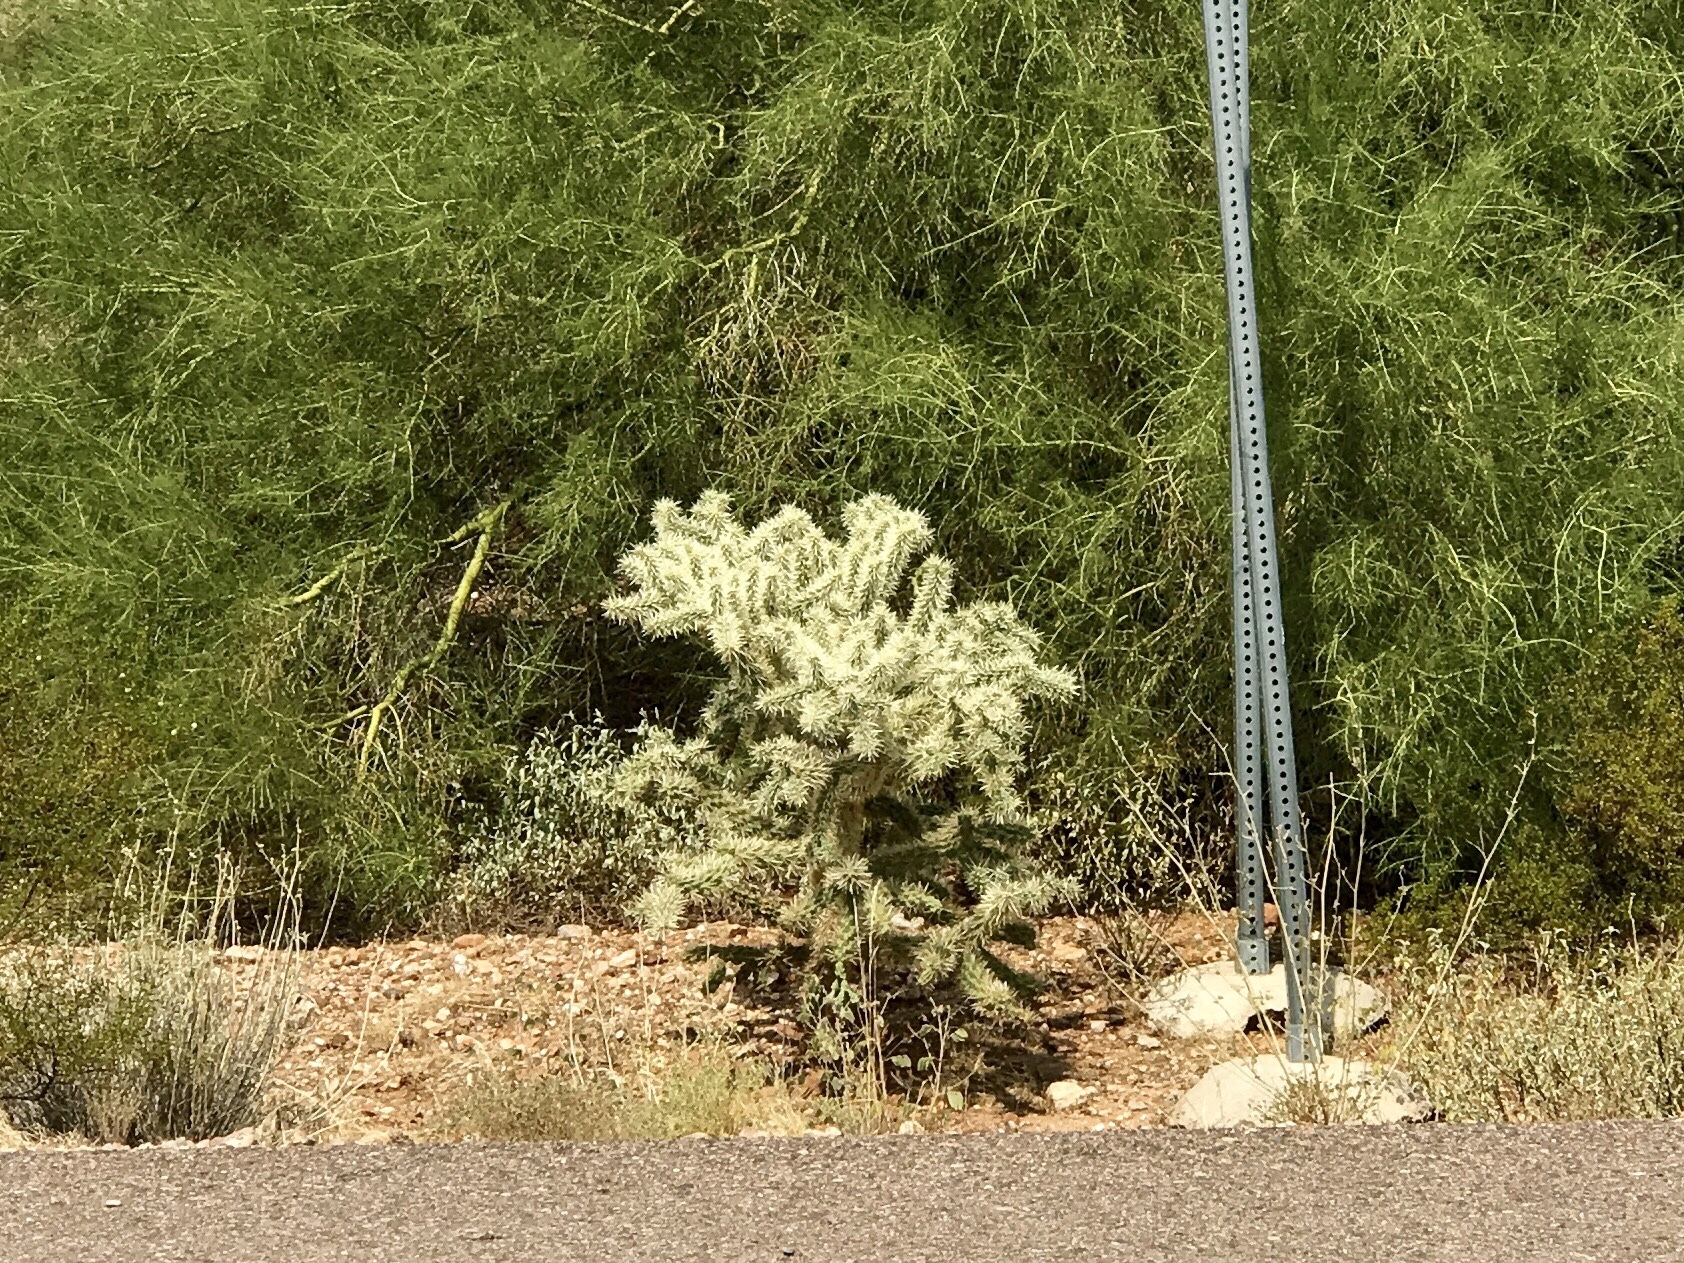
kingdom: Plantae
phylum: Tracheophyta
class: Magnoliopsida
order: Caryophyllales
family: Cactaceae
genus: Cylindropuntia
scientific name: Cylindropuntia fulgida
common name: Jumping cholla
